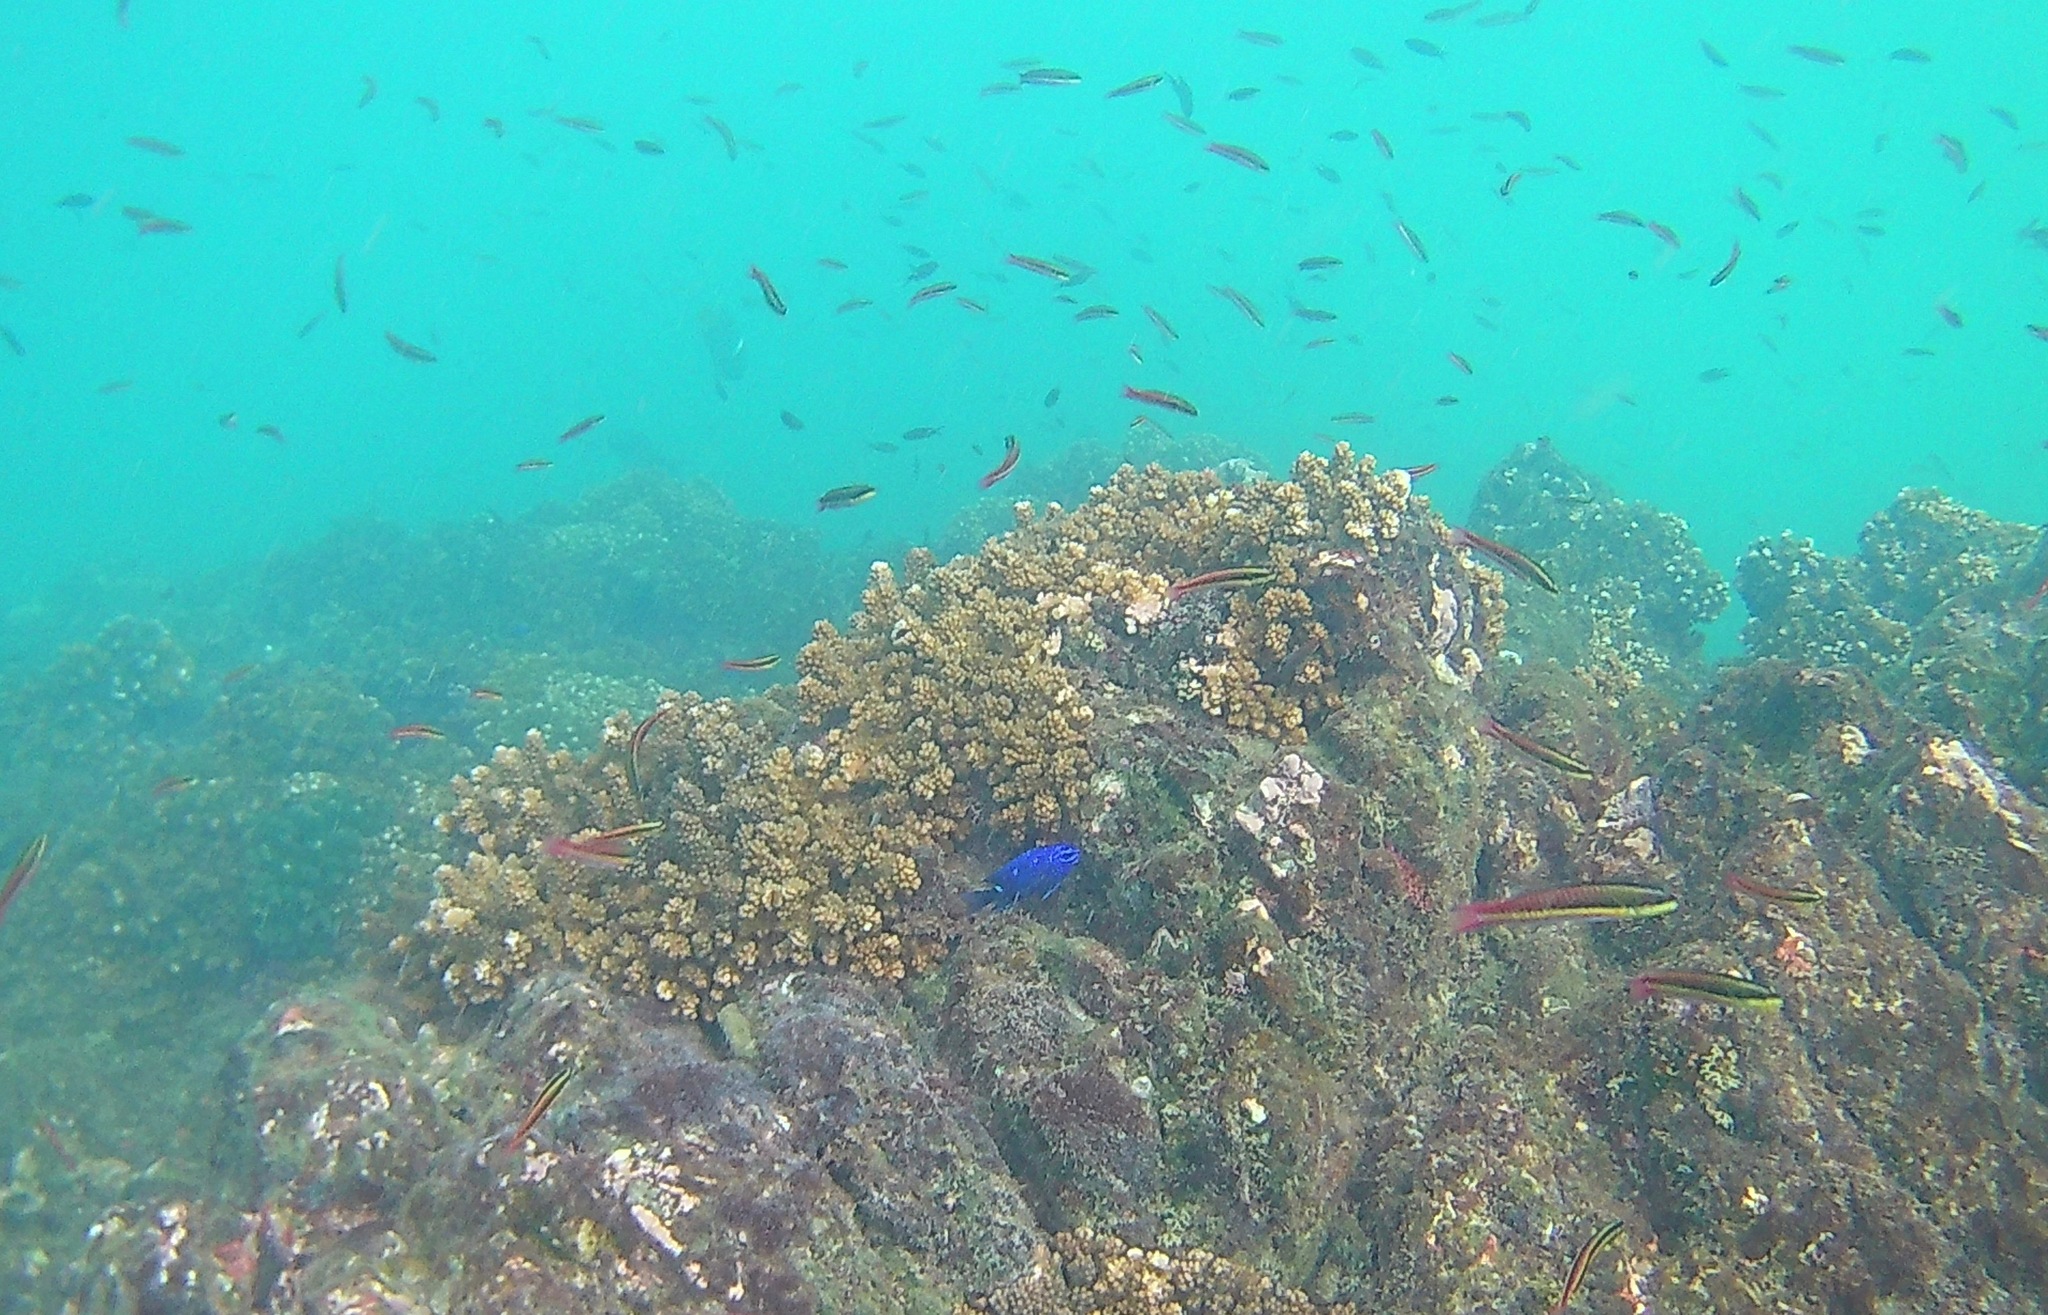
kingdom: Animalia
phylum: Chordata
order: Perciformes
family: Pomacentridae
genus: Microspathodon
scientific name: Microspathodon dorsalis
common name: Giant damselfish
